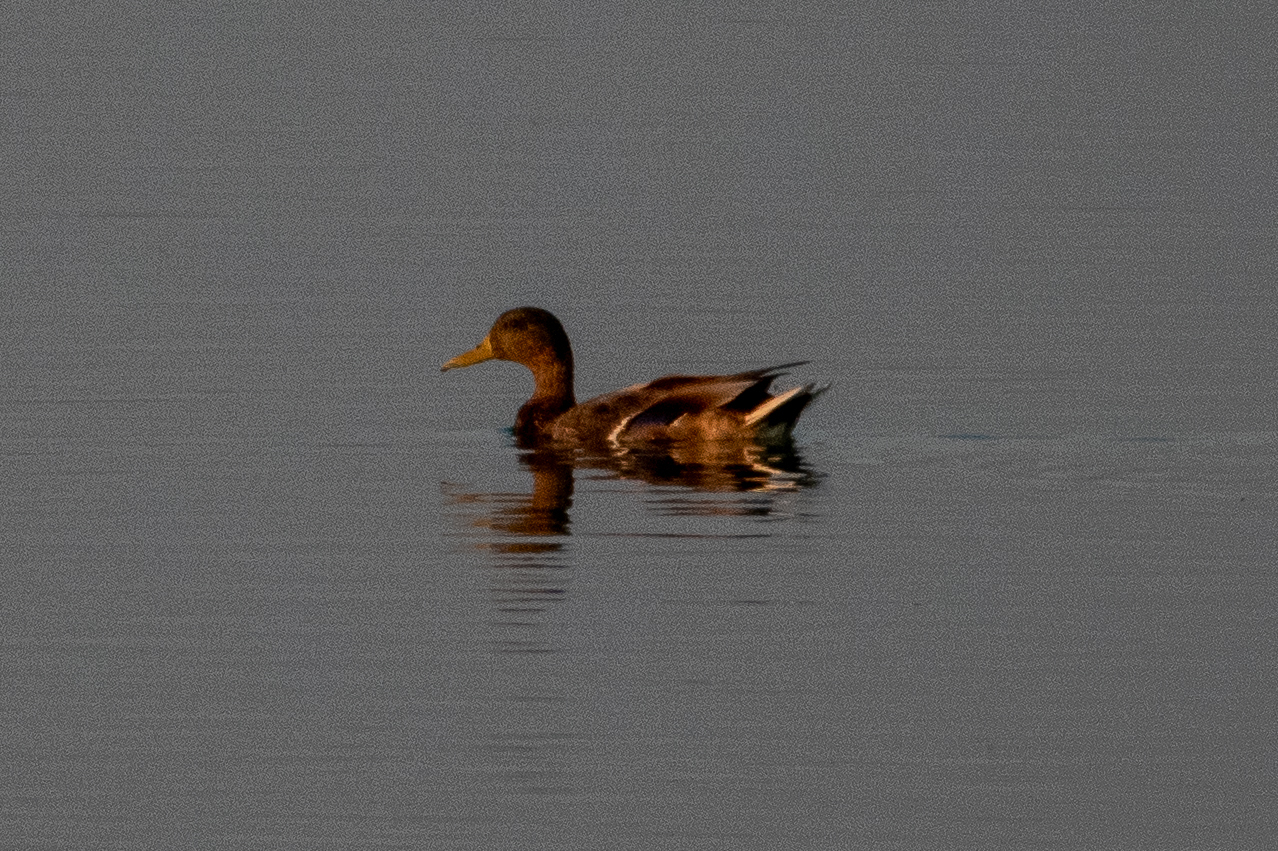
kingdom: Animalia
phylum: Chordata
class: Aves
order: Anseriformes
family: Anatidae
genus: Anas
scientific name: Anas platyrhynchos
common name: Mallard
